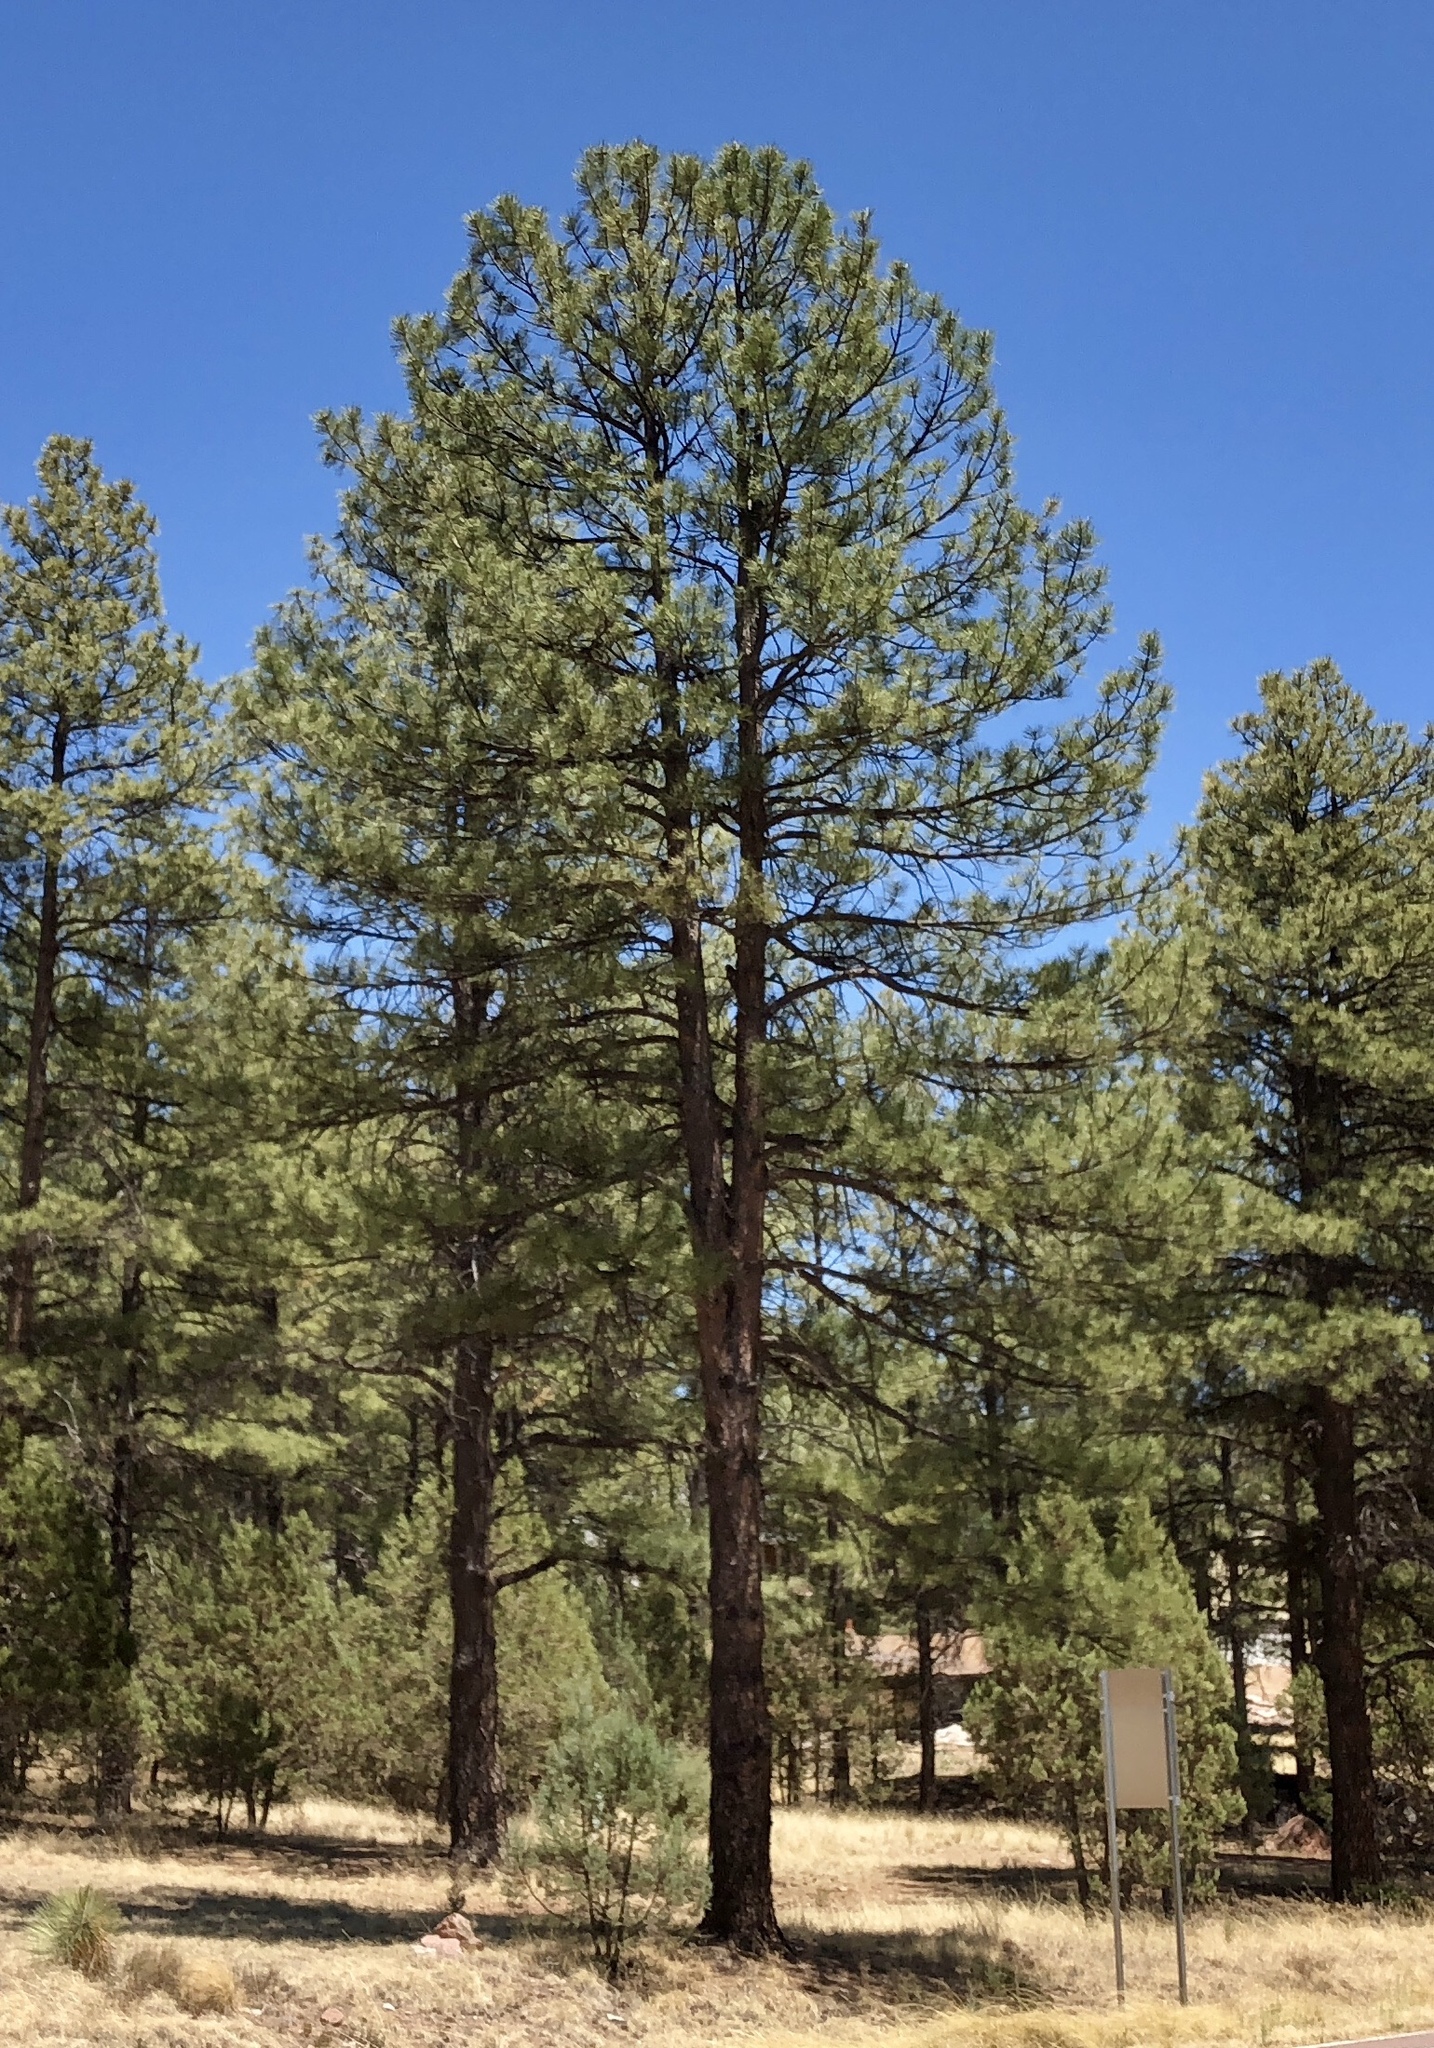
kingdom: Plantae
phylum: Tracheophyta
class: Pinopsida
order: Pinales
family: Pinaceae
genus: Pinus
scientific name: Pinus ponderosa
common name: Western yellow-pine
